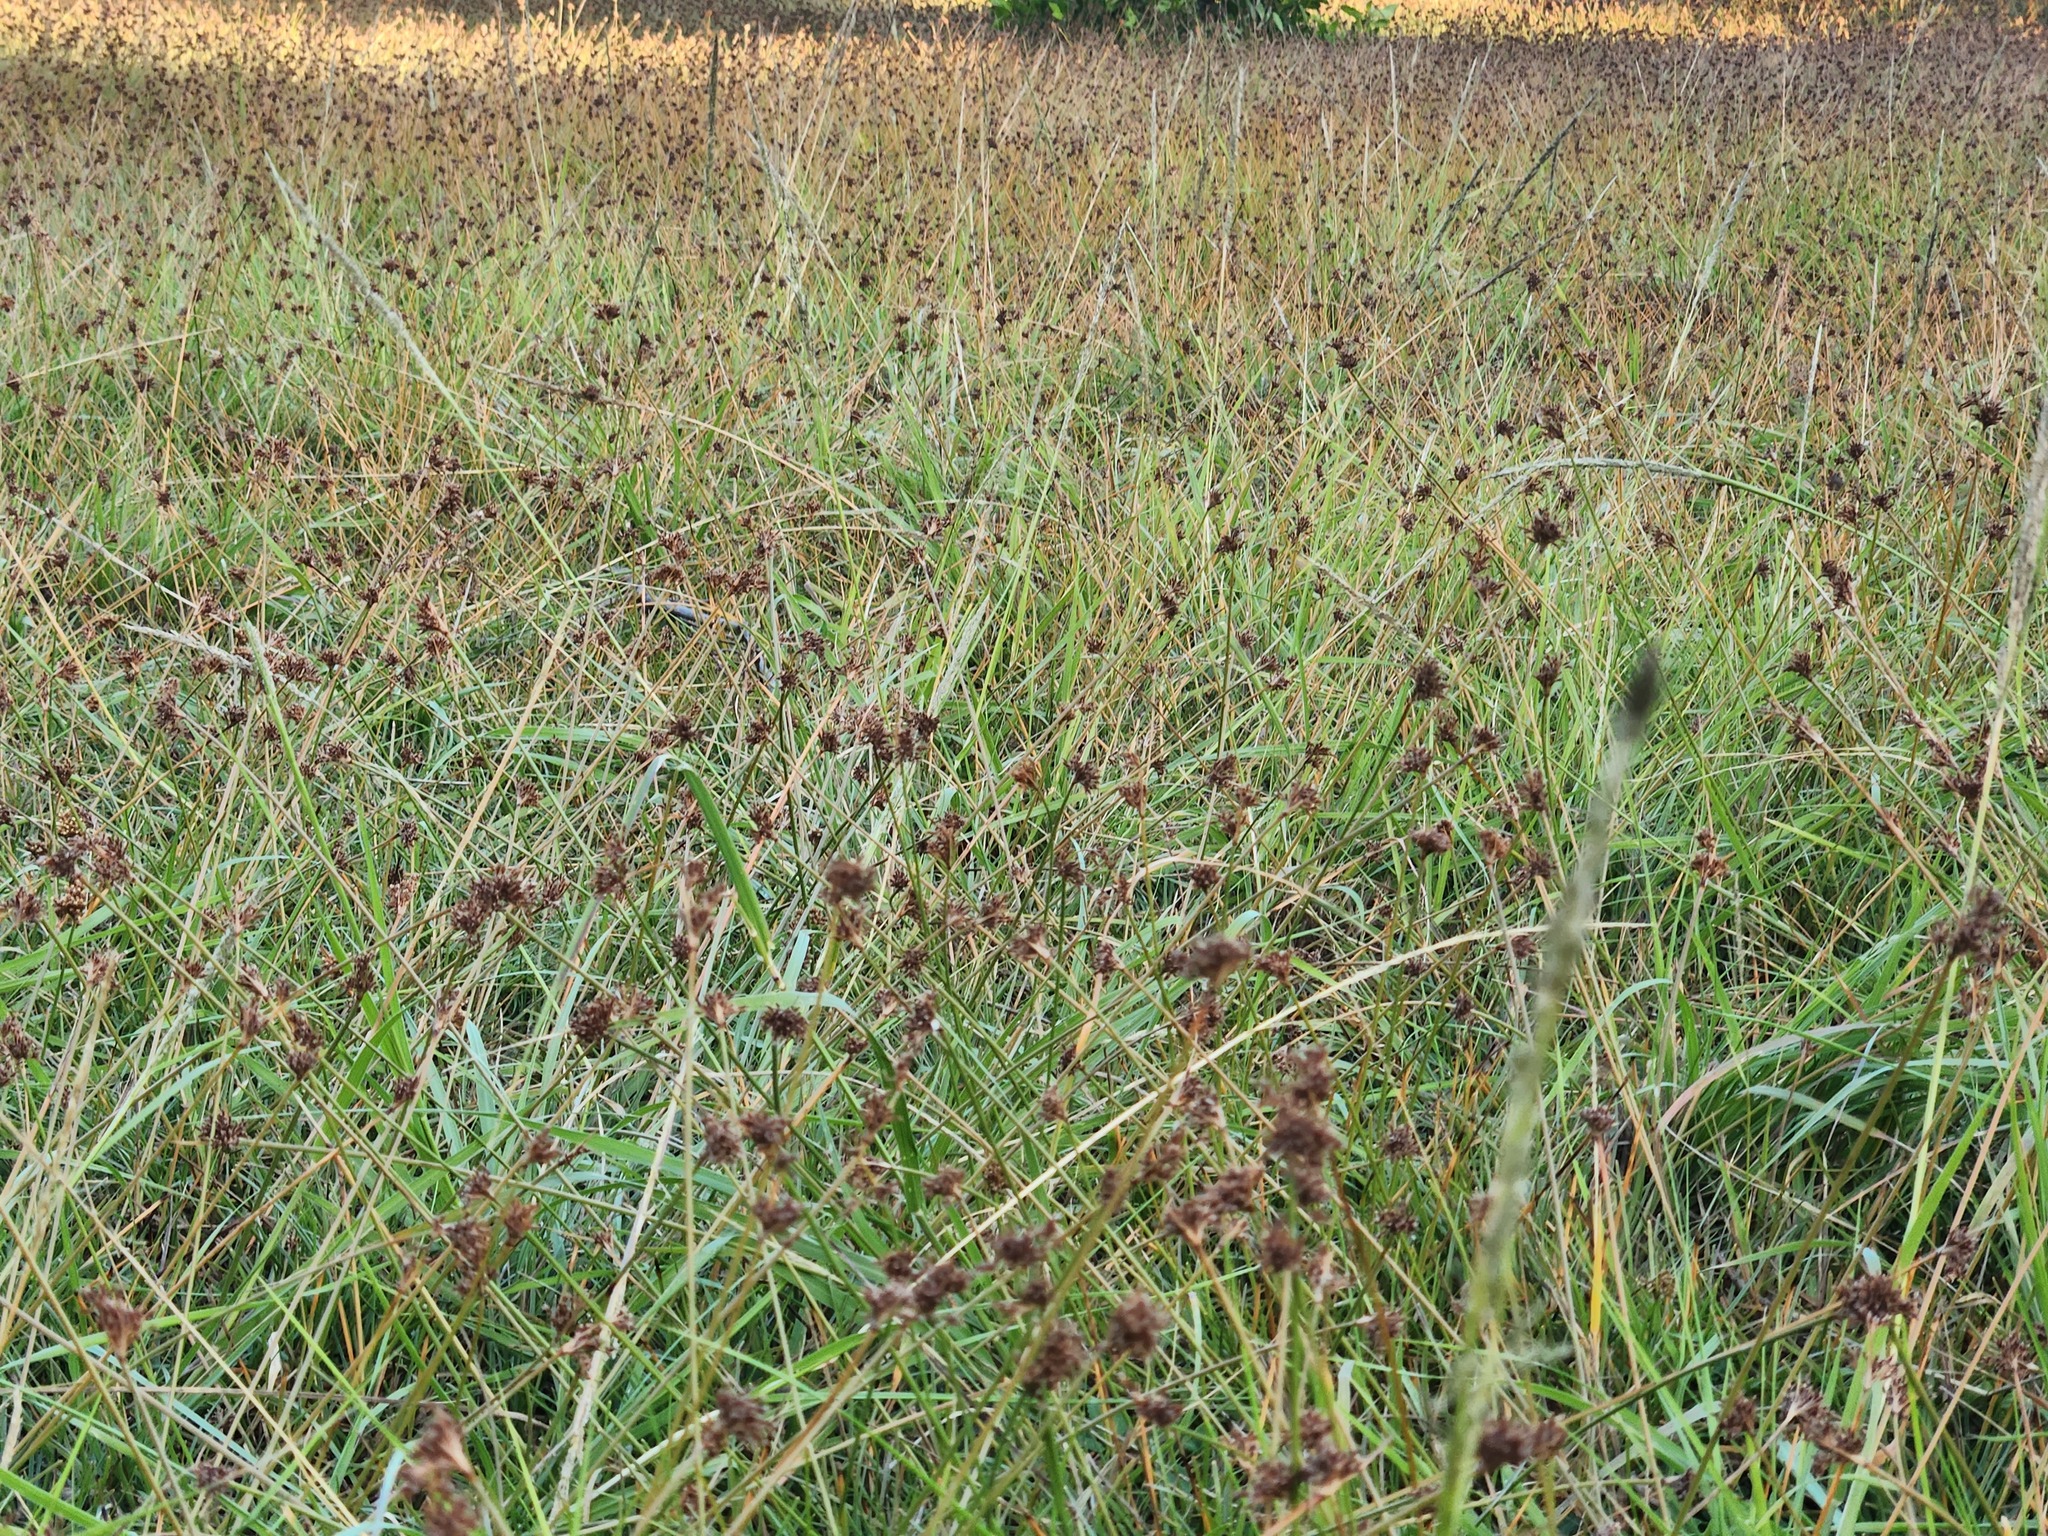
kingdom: Plantae
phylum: Tracheophyta
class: Liliopsida
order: Poales
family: Cyperaceae
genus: Fimbristylis
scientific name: Fimbristylis cymosa
